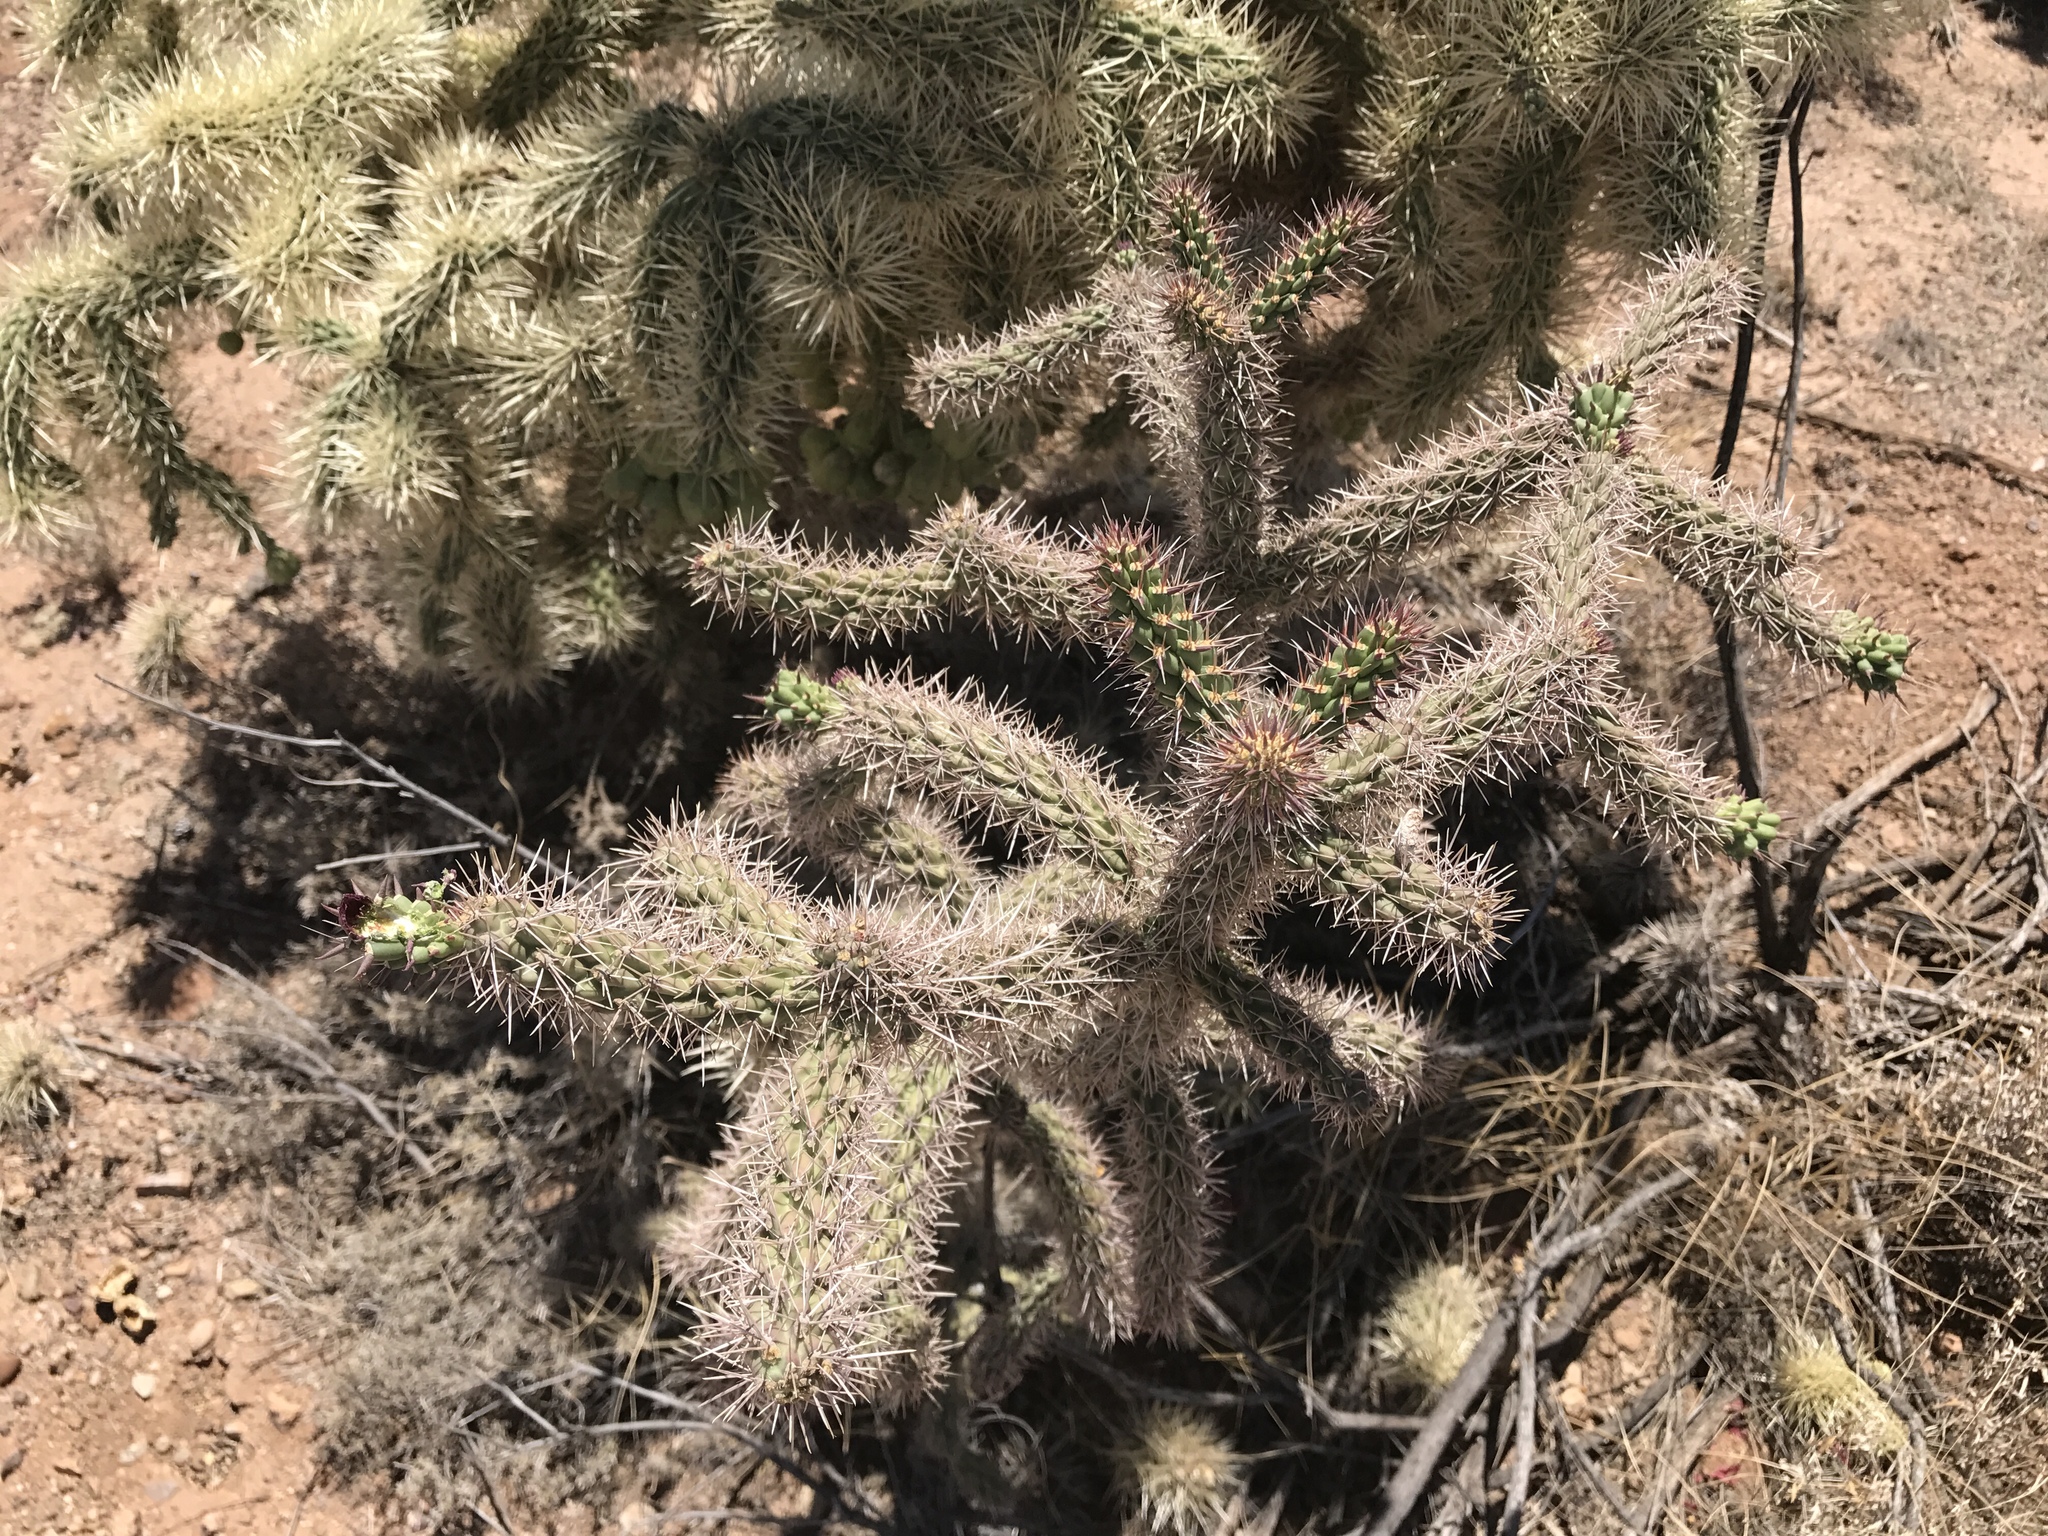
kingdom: Plantae
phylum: Tracheophyta
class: Magnoliopsida
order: Caryophyllales
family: Cactaceae
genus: Cylindropuntia
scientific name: Cylindropuntia imbricata
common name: Candelabrum cactus
